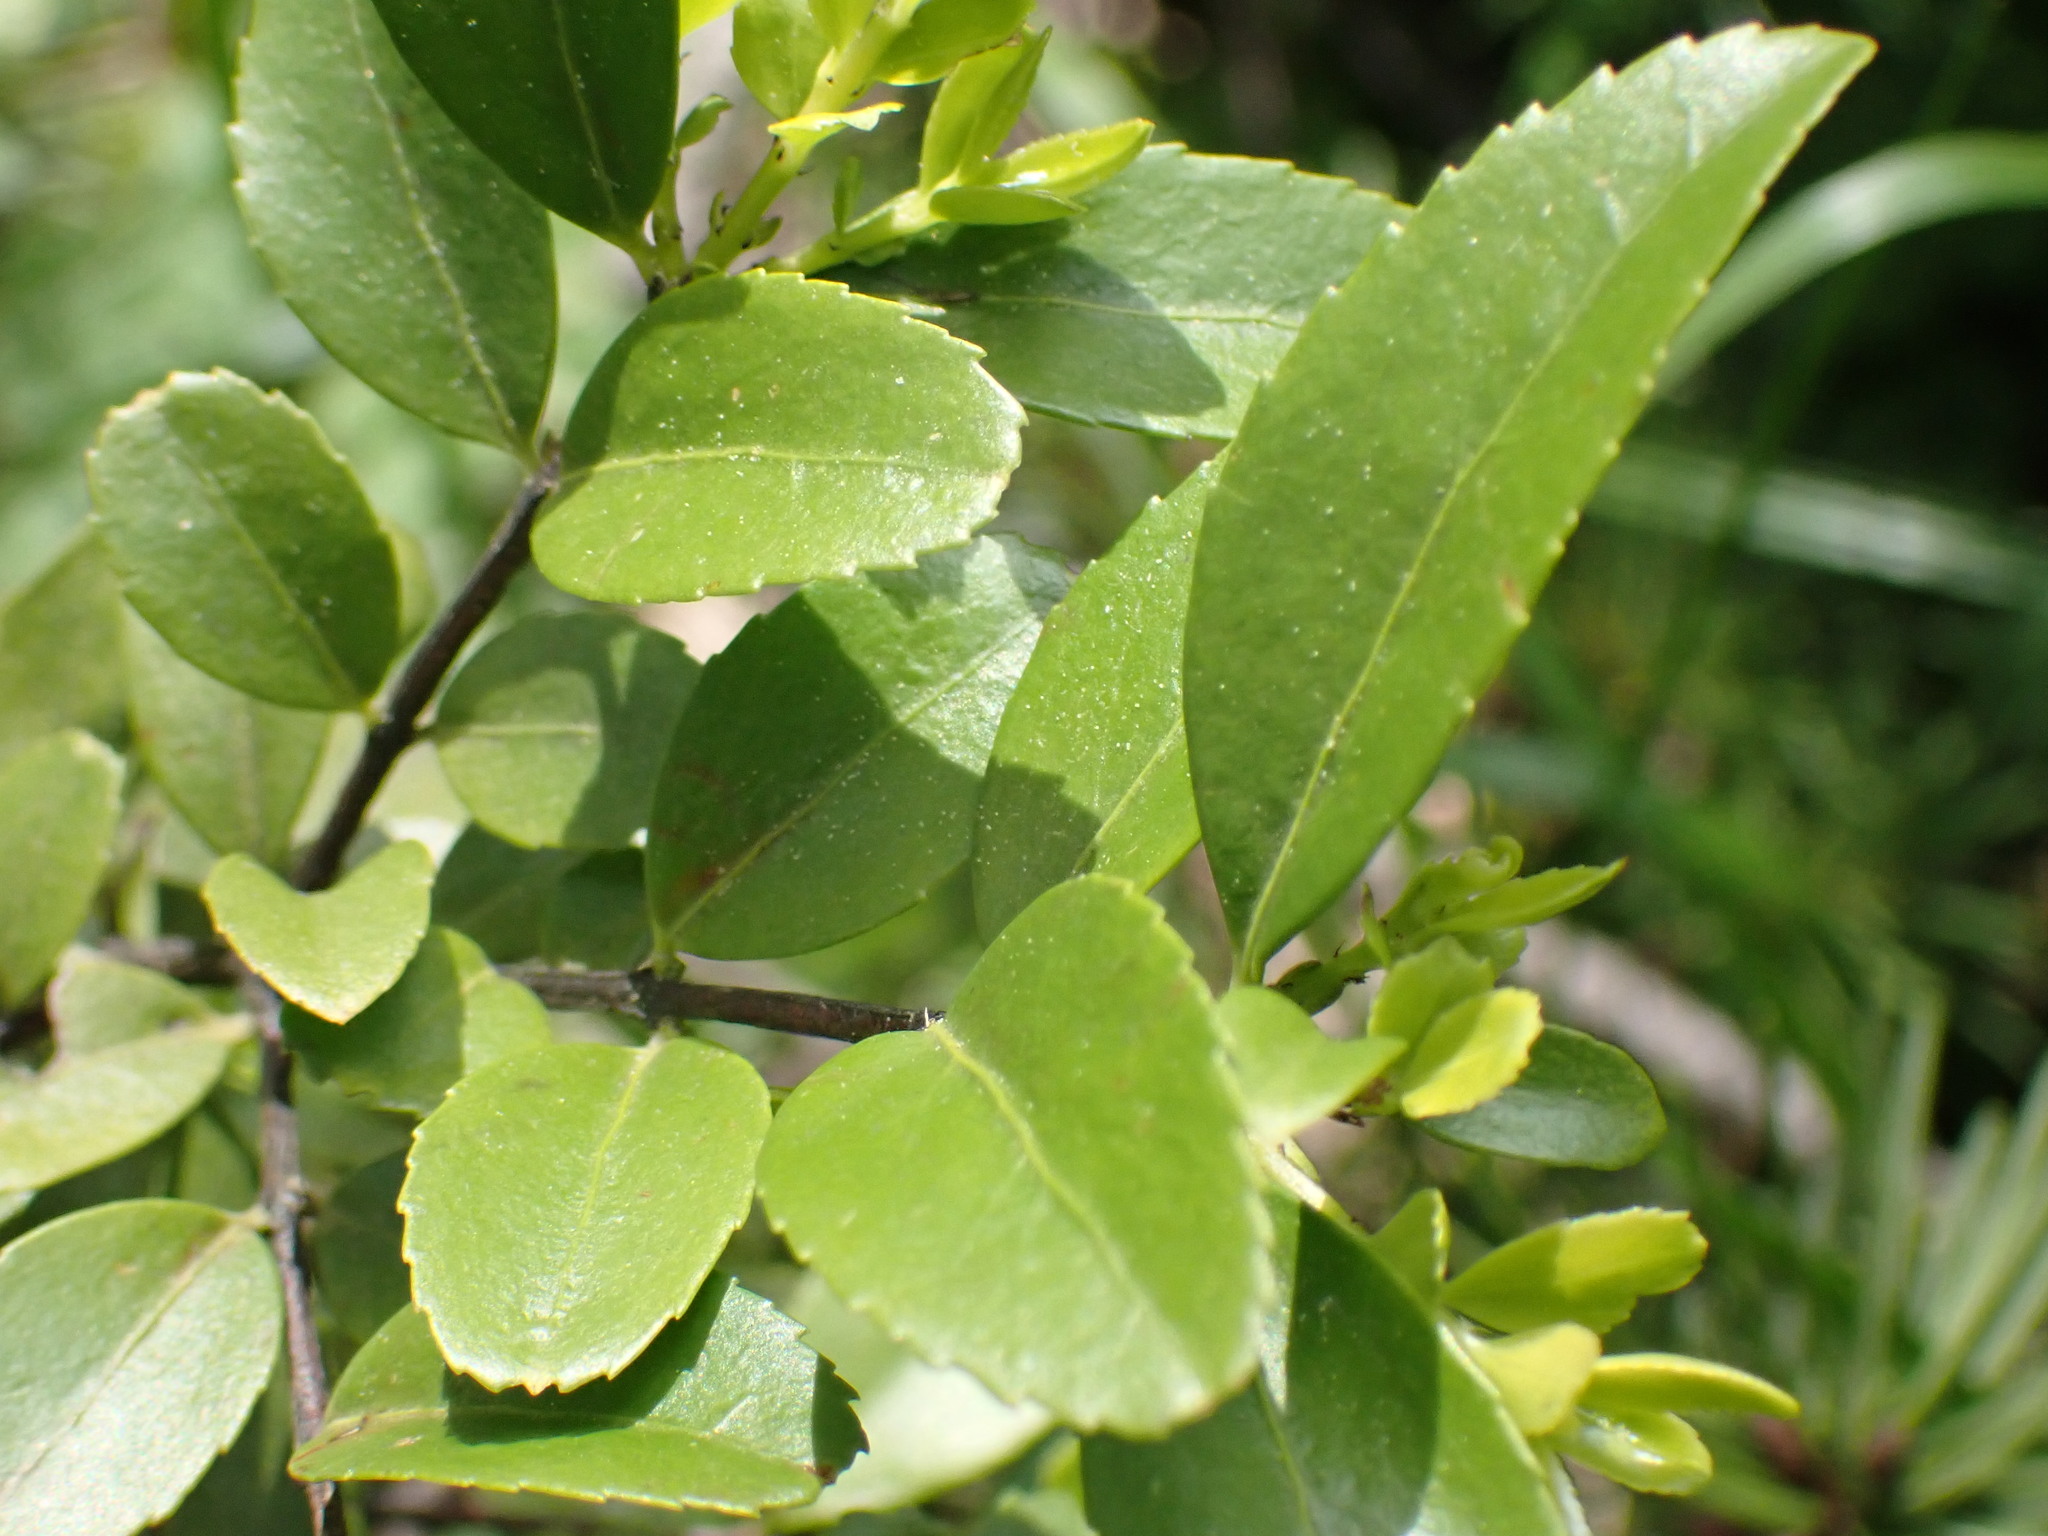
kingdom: Plantae
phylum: Tracheophyta
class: Magnoliopsida
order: Celastrales
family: Celastraceae
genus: Paxistima
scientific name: Paxistima myrsinites
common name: Mountain-lover
